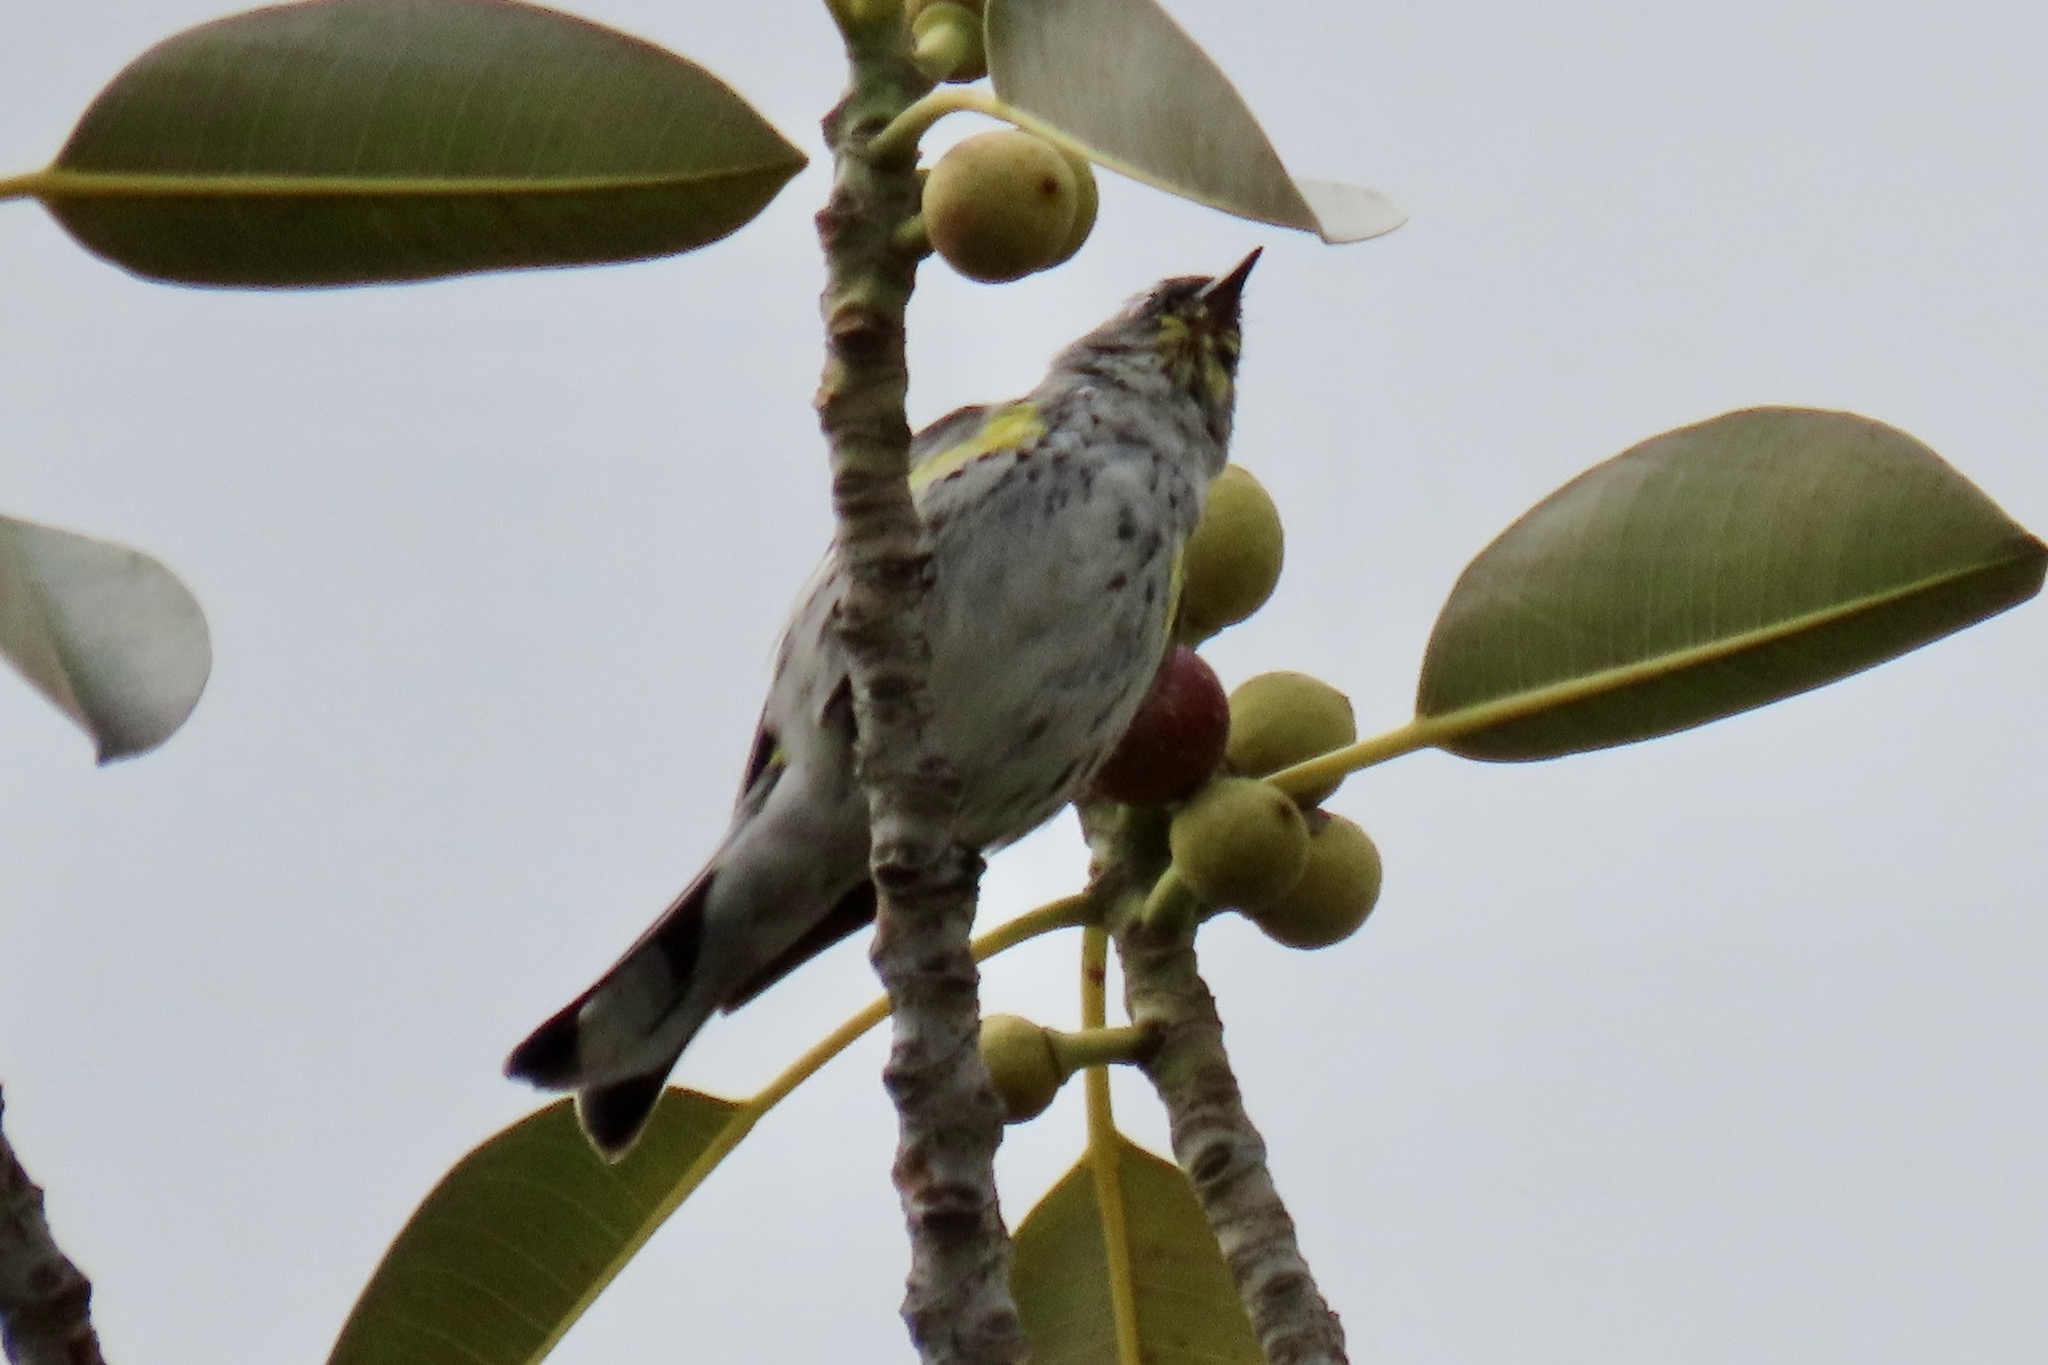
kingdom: Animalia
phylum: Chordata
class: Aves
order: Passeriformes
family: Parulidae
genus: Setophaga
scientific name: Setophaga coronata
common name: Myrtle warbler
